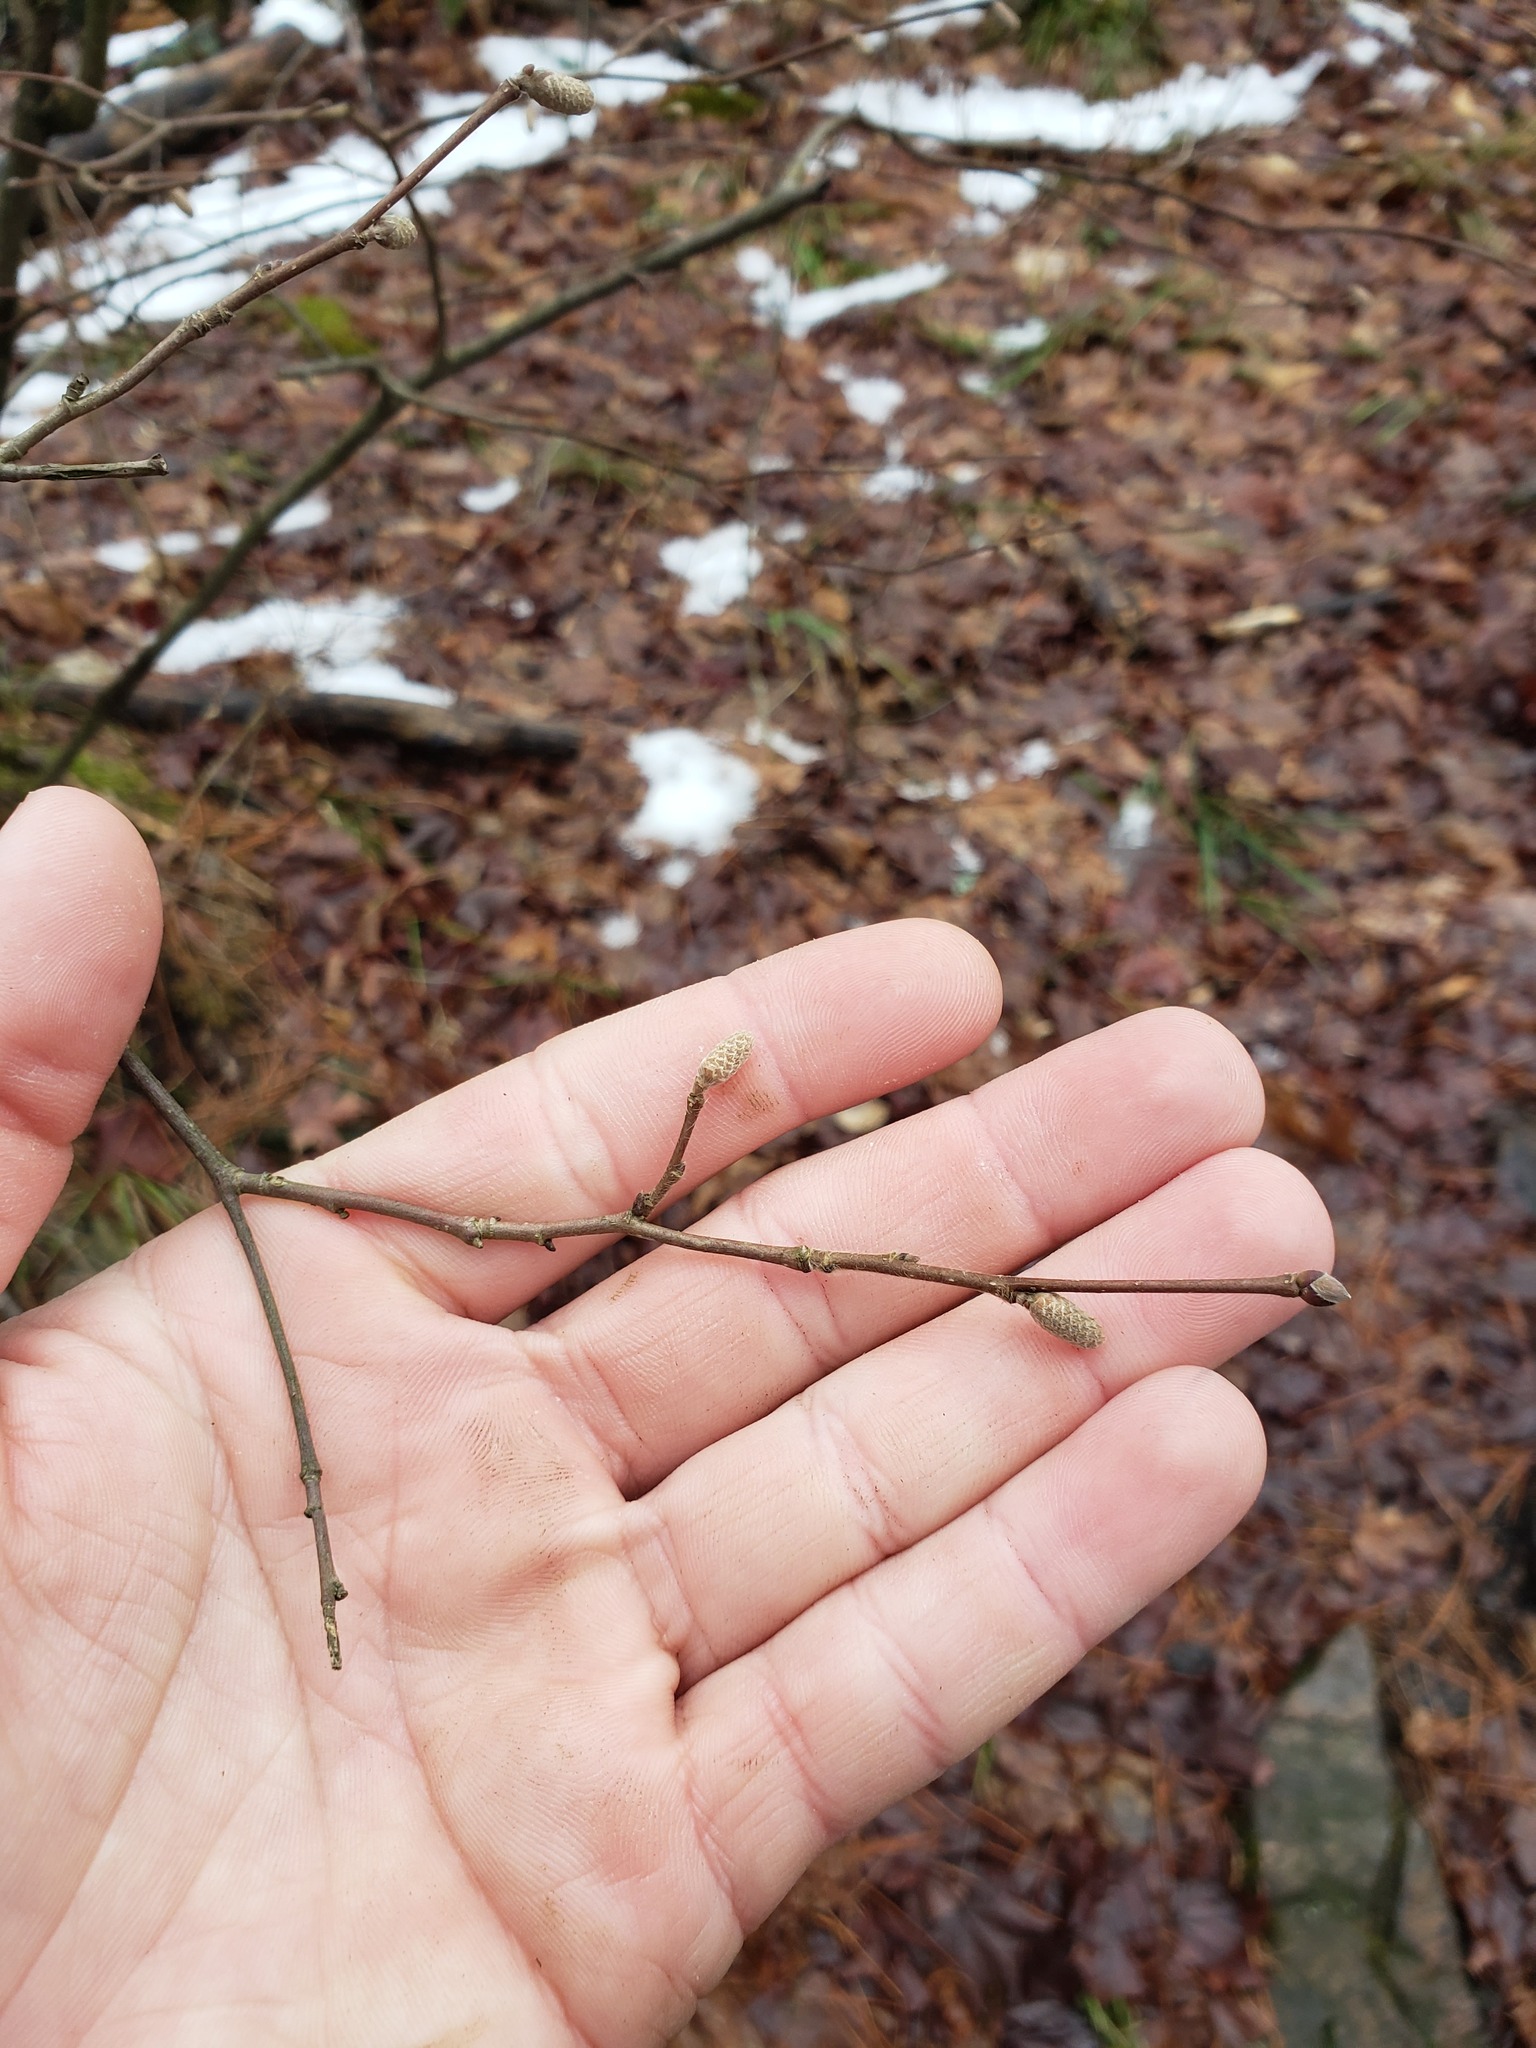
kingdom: Plantae
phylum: Tracheophyta
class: Magnoliopsida
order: Fagales
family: Betulaceae
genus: Corylus
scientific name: Corylus cornuta
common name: Beaked hazel
